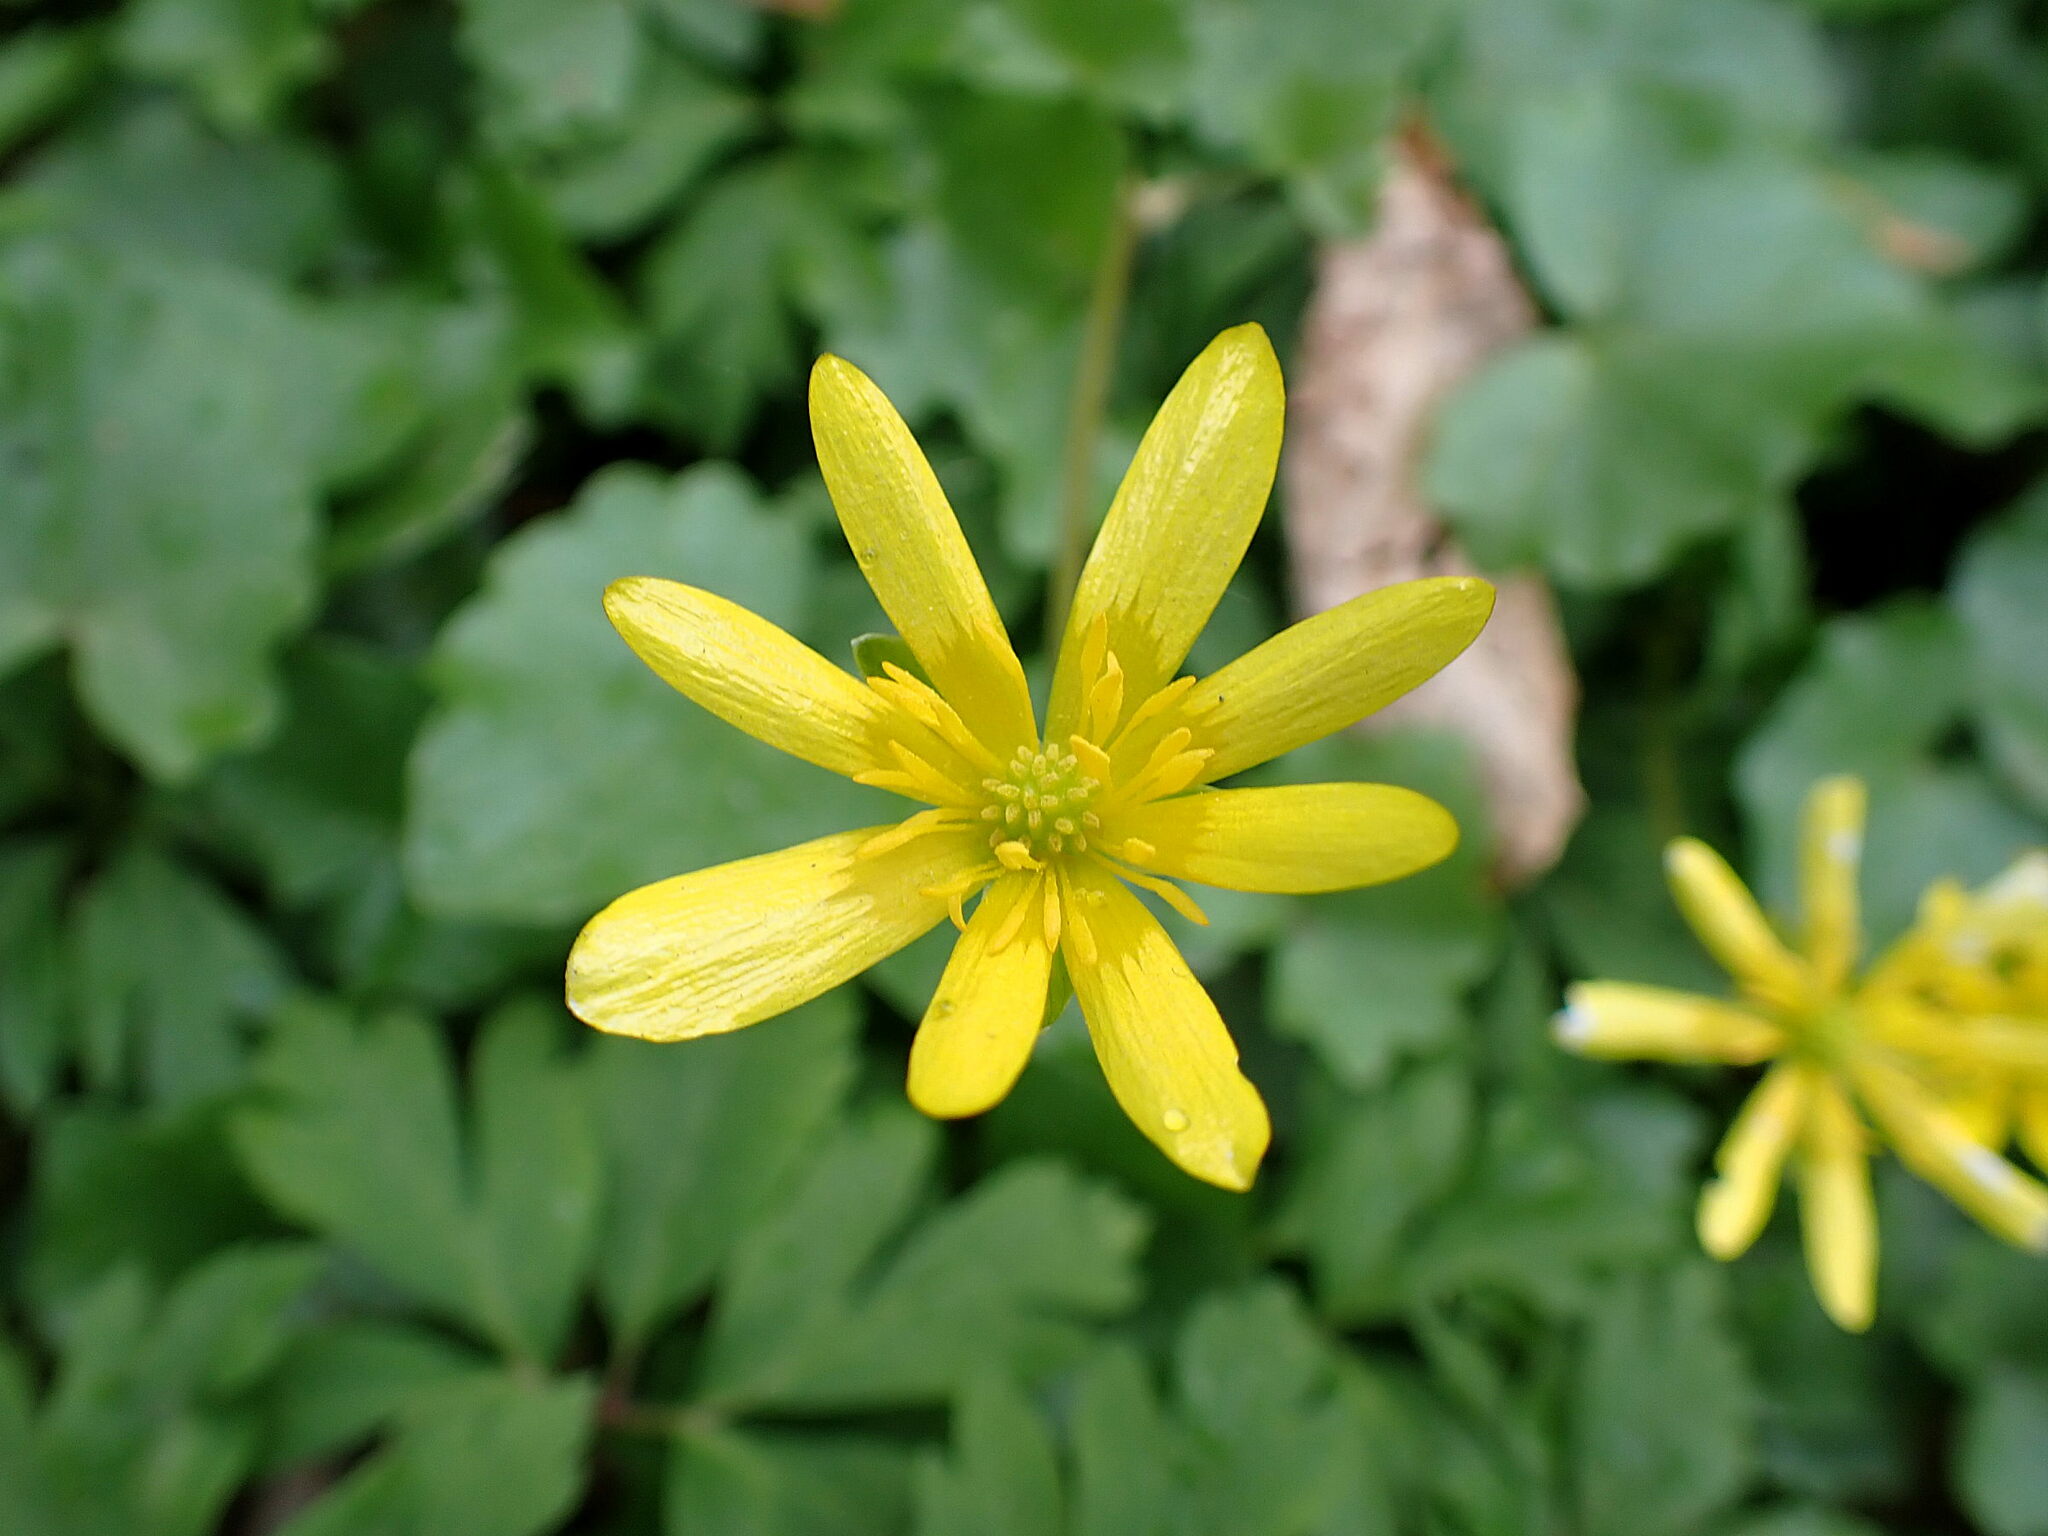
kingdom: Plantae
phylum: Tracheophyta
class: Magnoliopsida
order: Ranunculales
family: Ranunculaceae
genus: Ficaria
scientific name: Ficaria verna
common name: Lesser celandine
